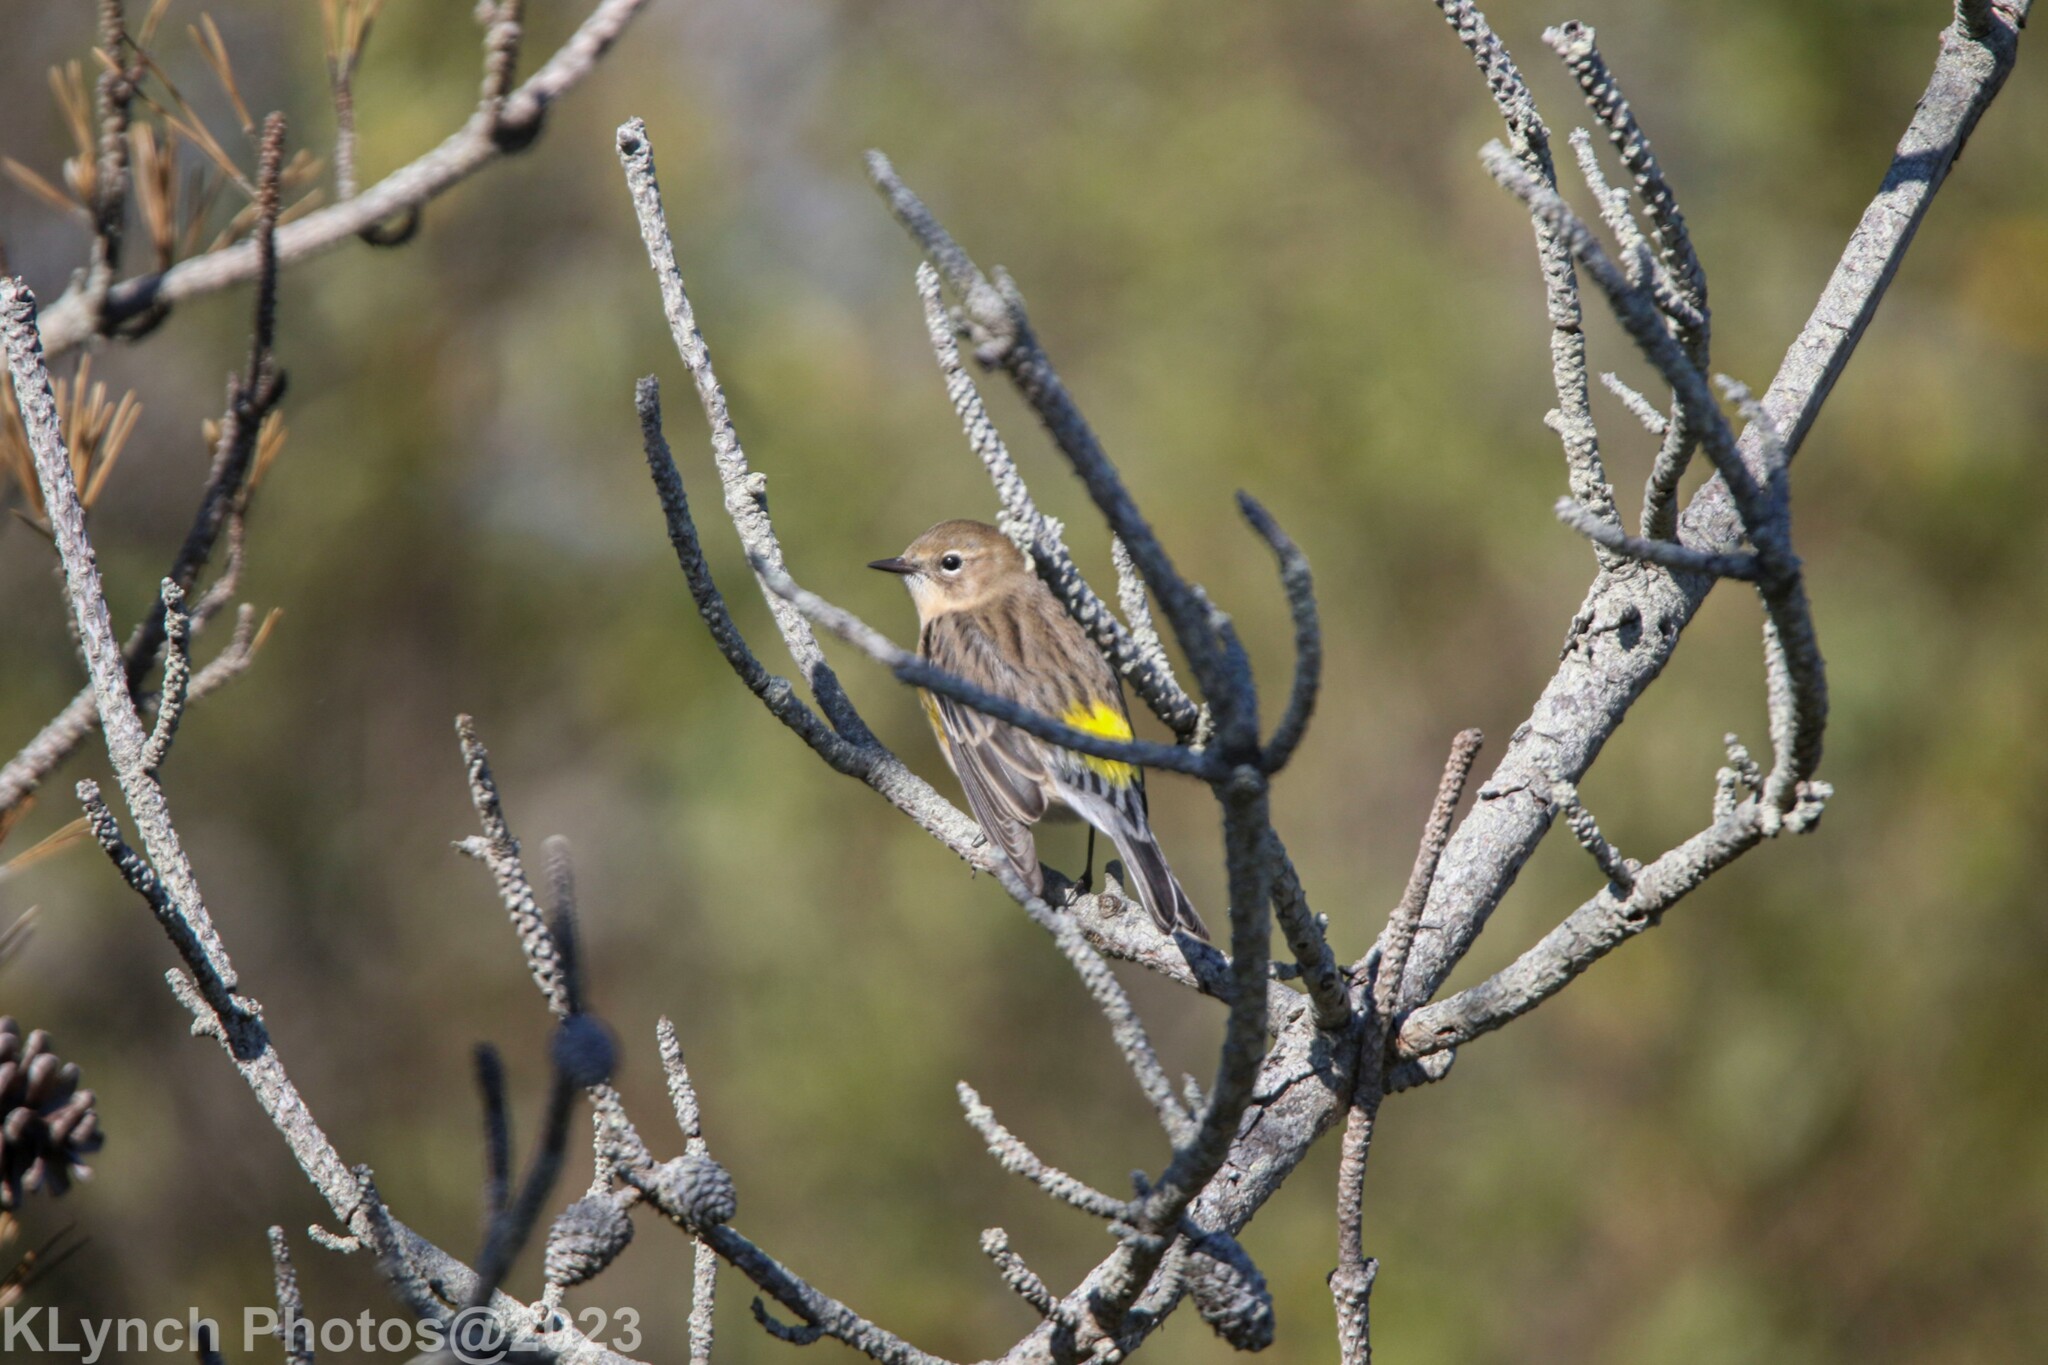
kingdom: Animalia
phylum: Chordata
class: Aves
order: Passeriformes
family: Parulidae
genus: Setophaga
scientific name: Setophaga coronata
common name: Myrtle warbler
